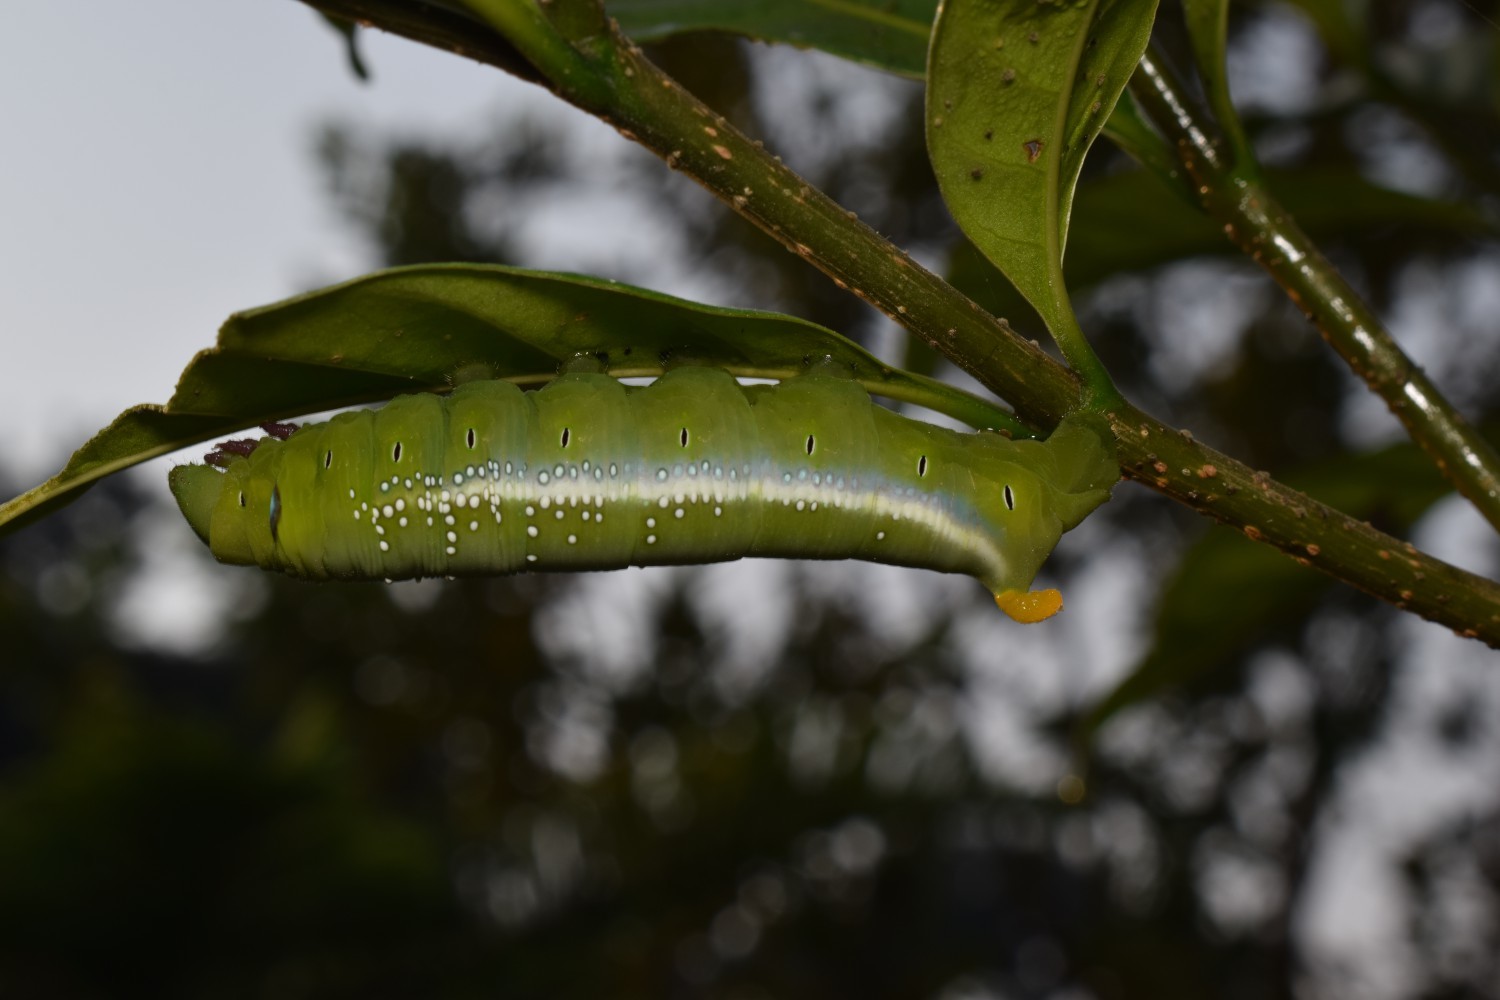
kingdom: Animalia
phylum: Arthropoda
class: Insecta
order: Lepidoptera
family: Sphingidae
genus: Daphnis
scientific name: Daphnis nerii
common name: Oleander hawk-moth
